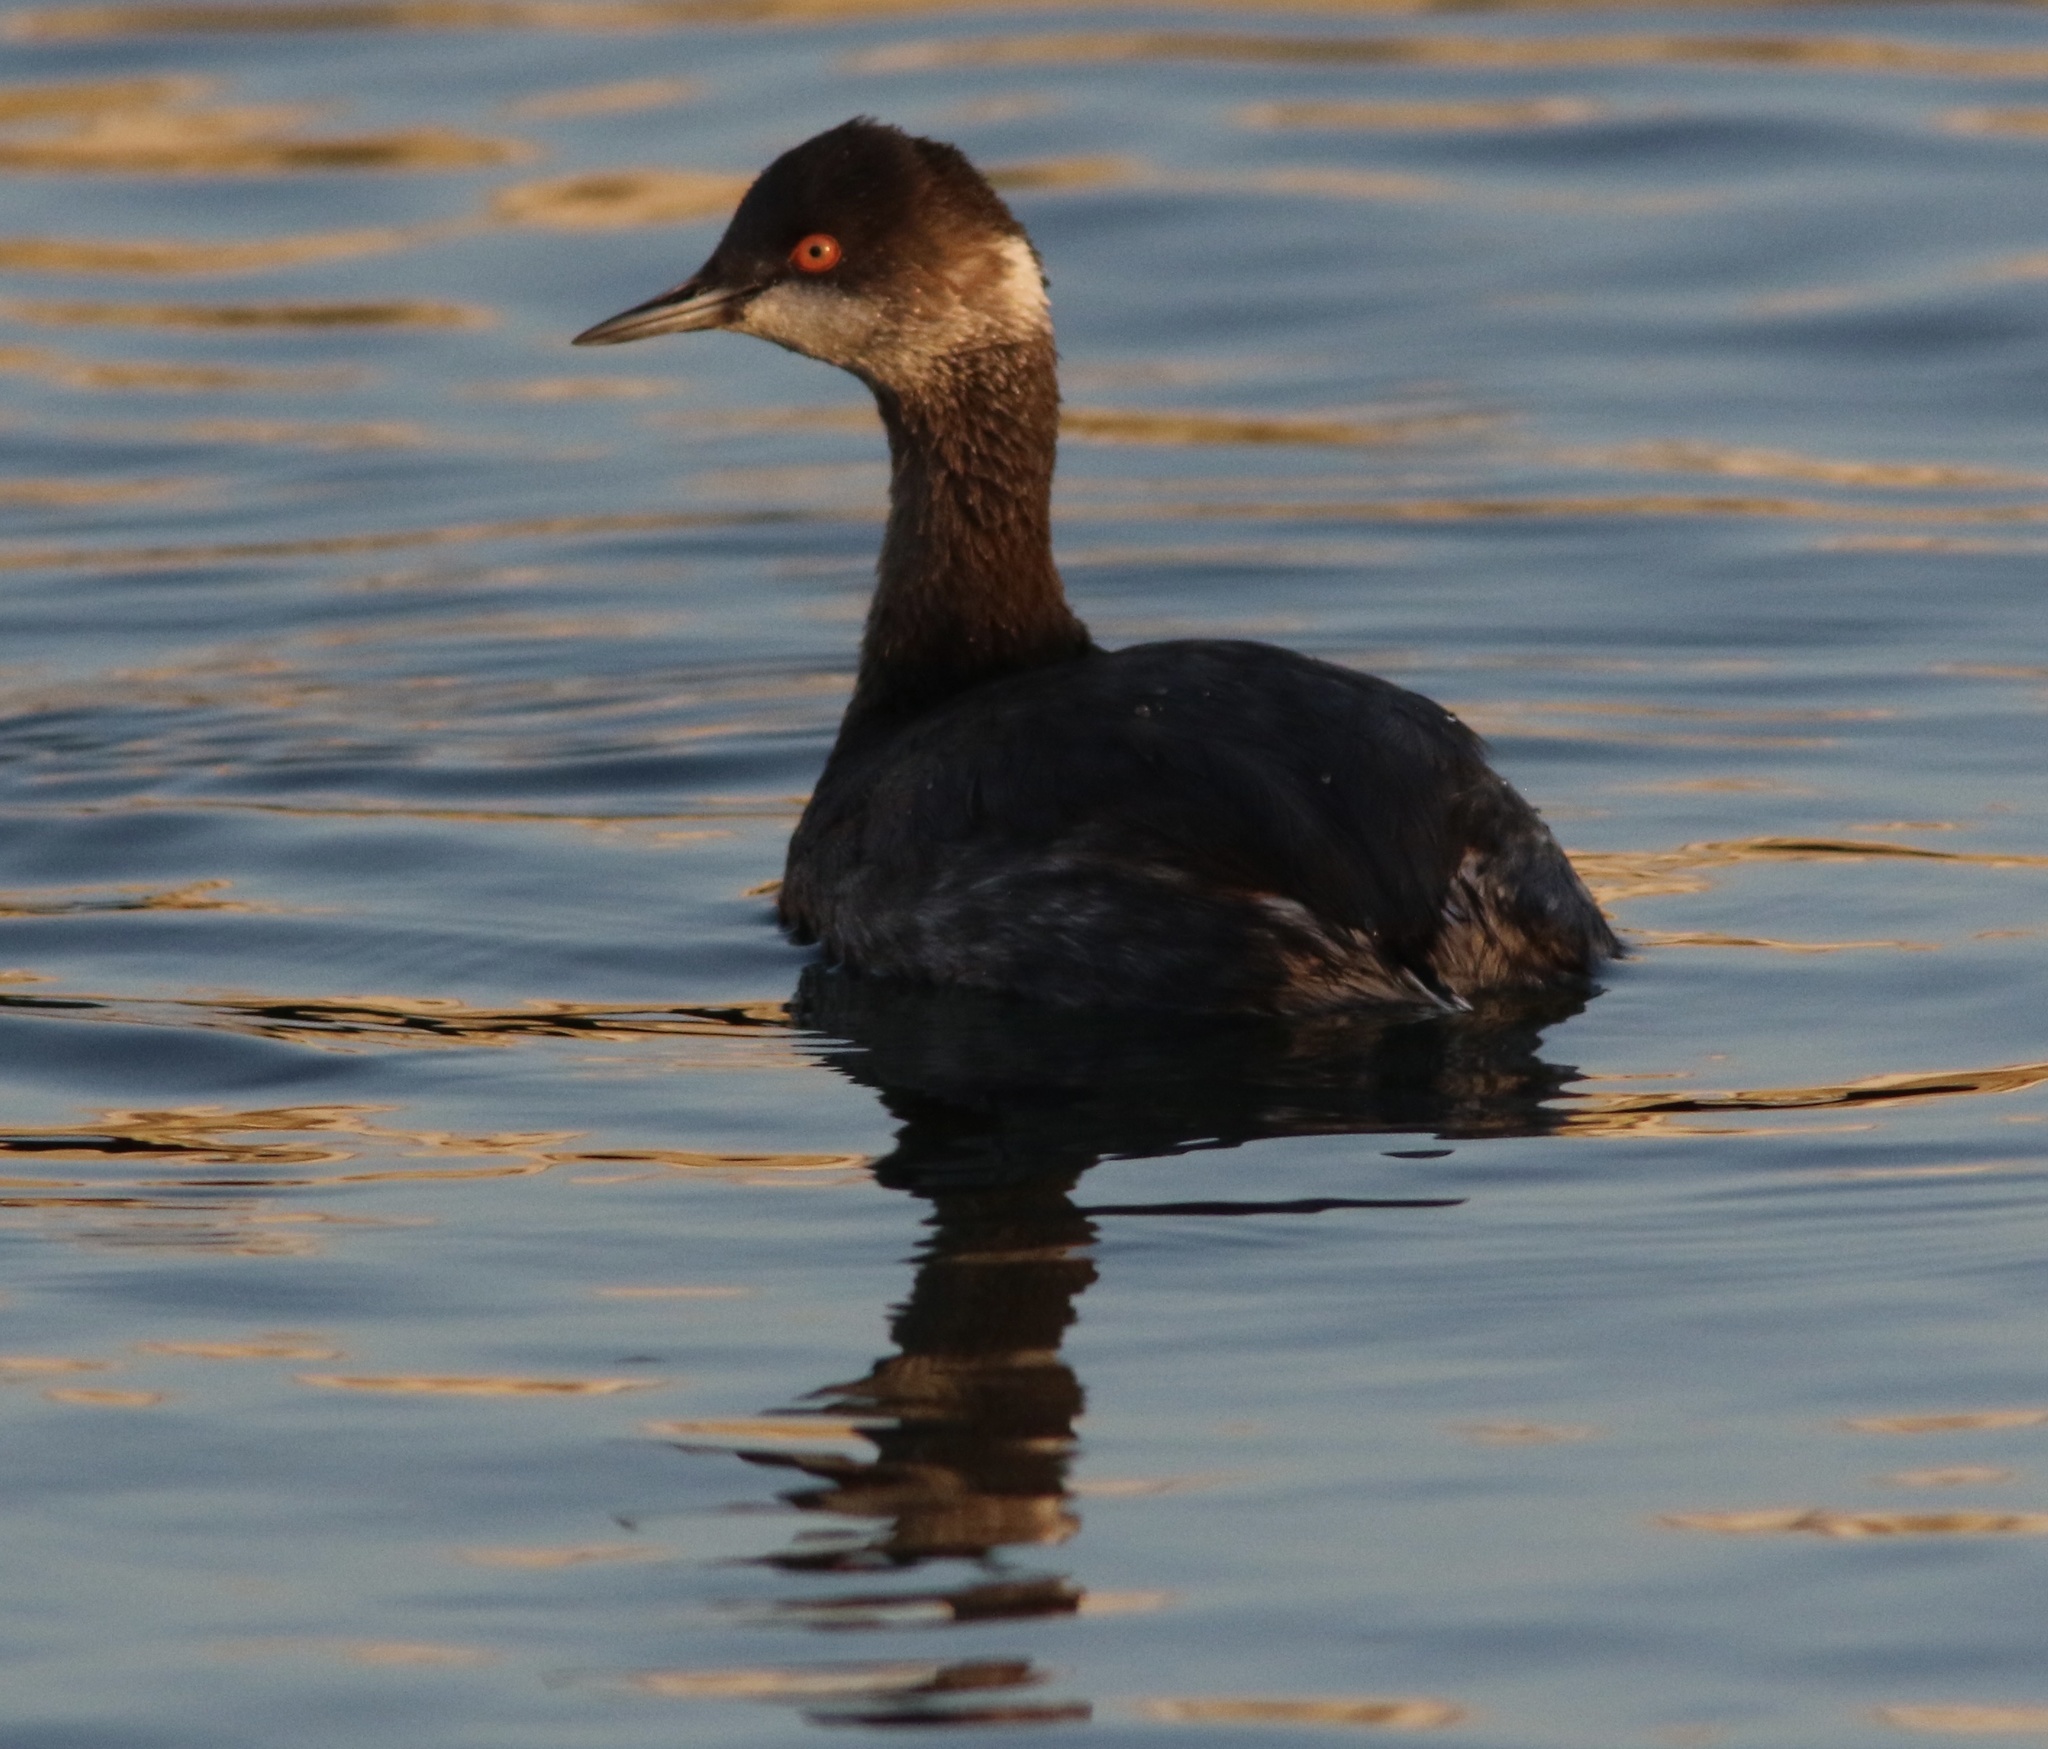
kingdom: Animalia
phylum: Chordata
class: Aves
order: Podicipediformes
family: Podicipedidae
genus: Podiceps
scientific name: Podiceps nigricollis
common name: Black-necked grebe
